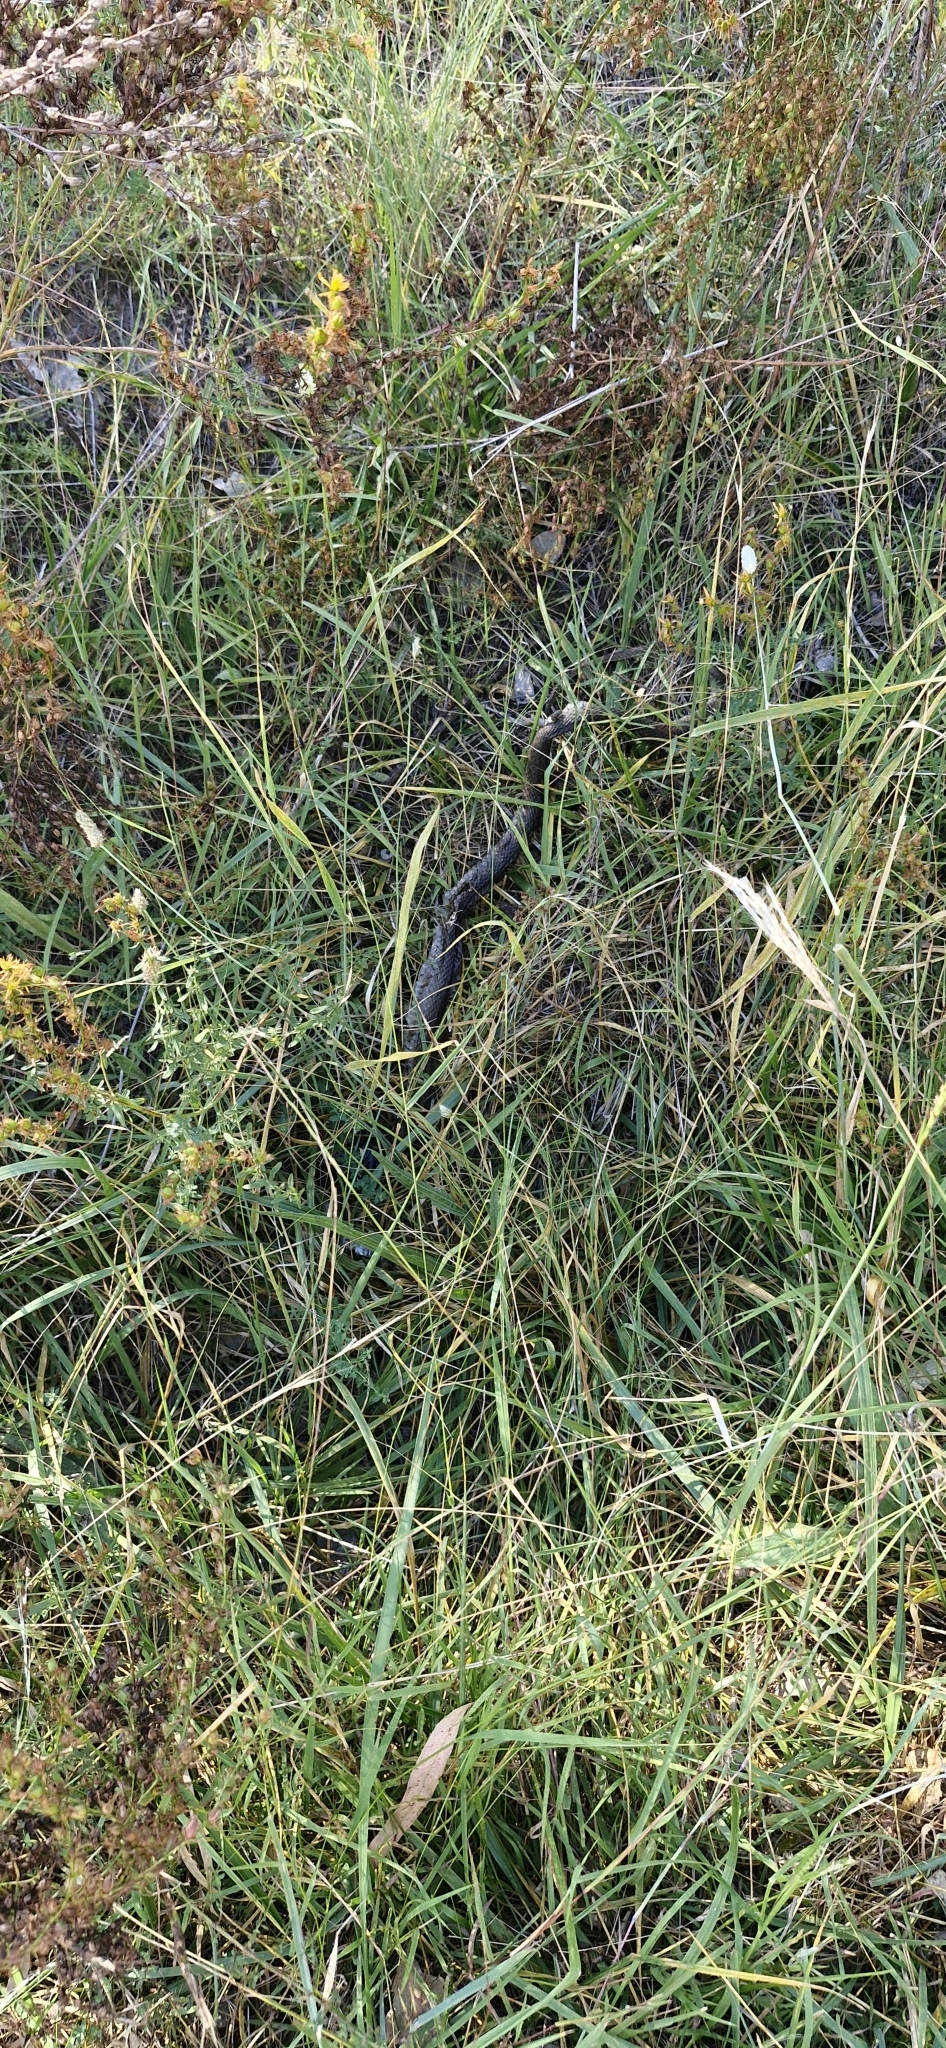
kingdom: Animalia
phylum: Chordata
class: Squamata
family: Elapidae
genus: Pseudonaja
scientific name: Pseudonaja textilis
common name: Eastern brown snake
